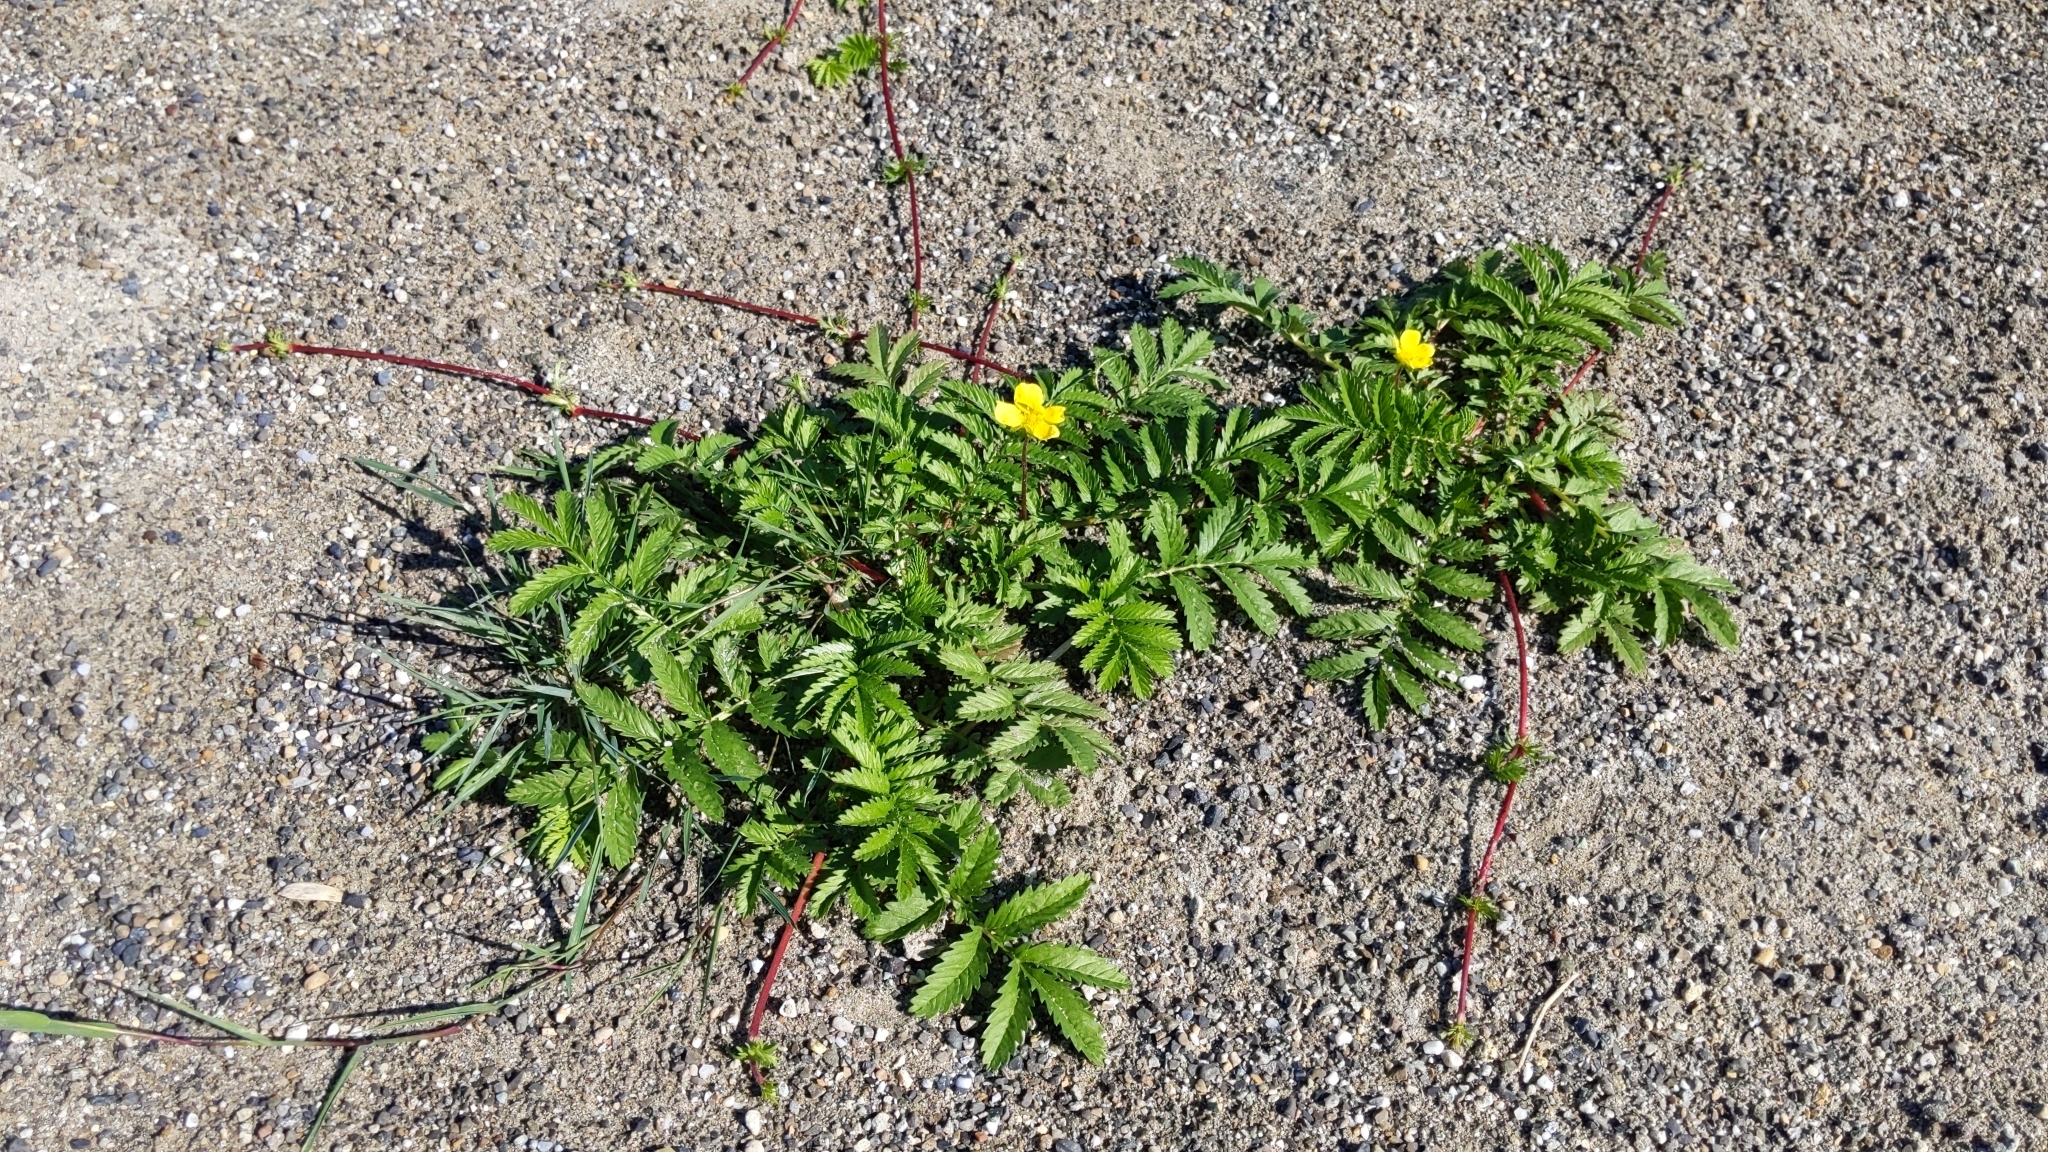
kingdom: Plantae
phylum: Tracheophyta
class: Magnoliopsida
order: Rosales
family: Rosaceae
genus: Argentina
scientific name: Argentina anserina
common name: Common silverweed
